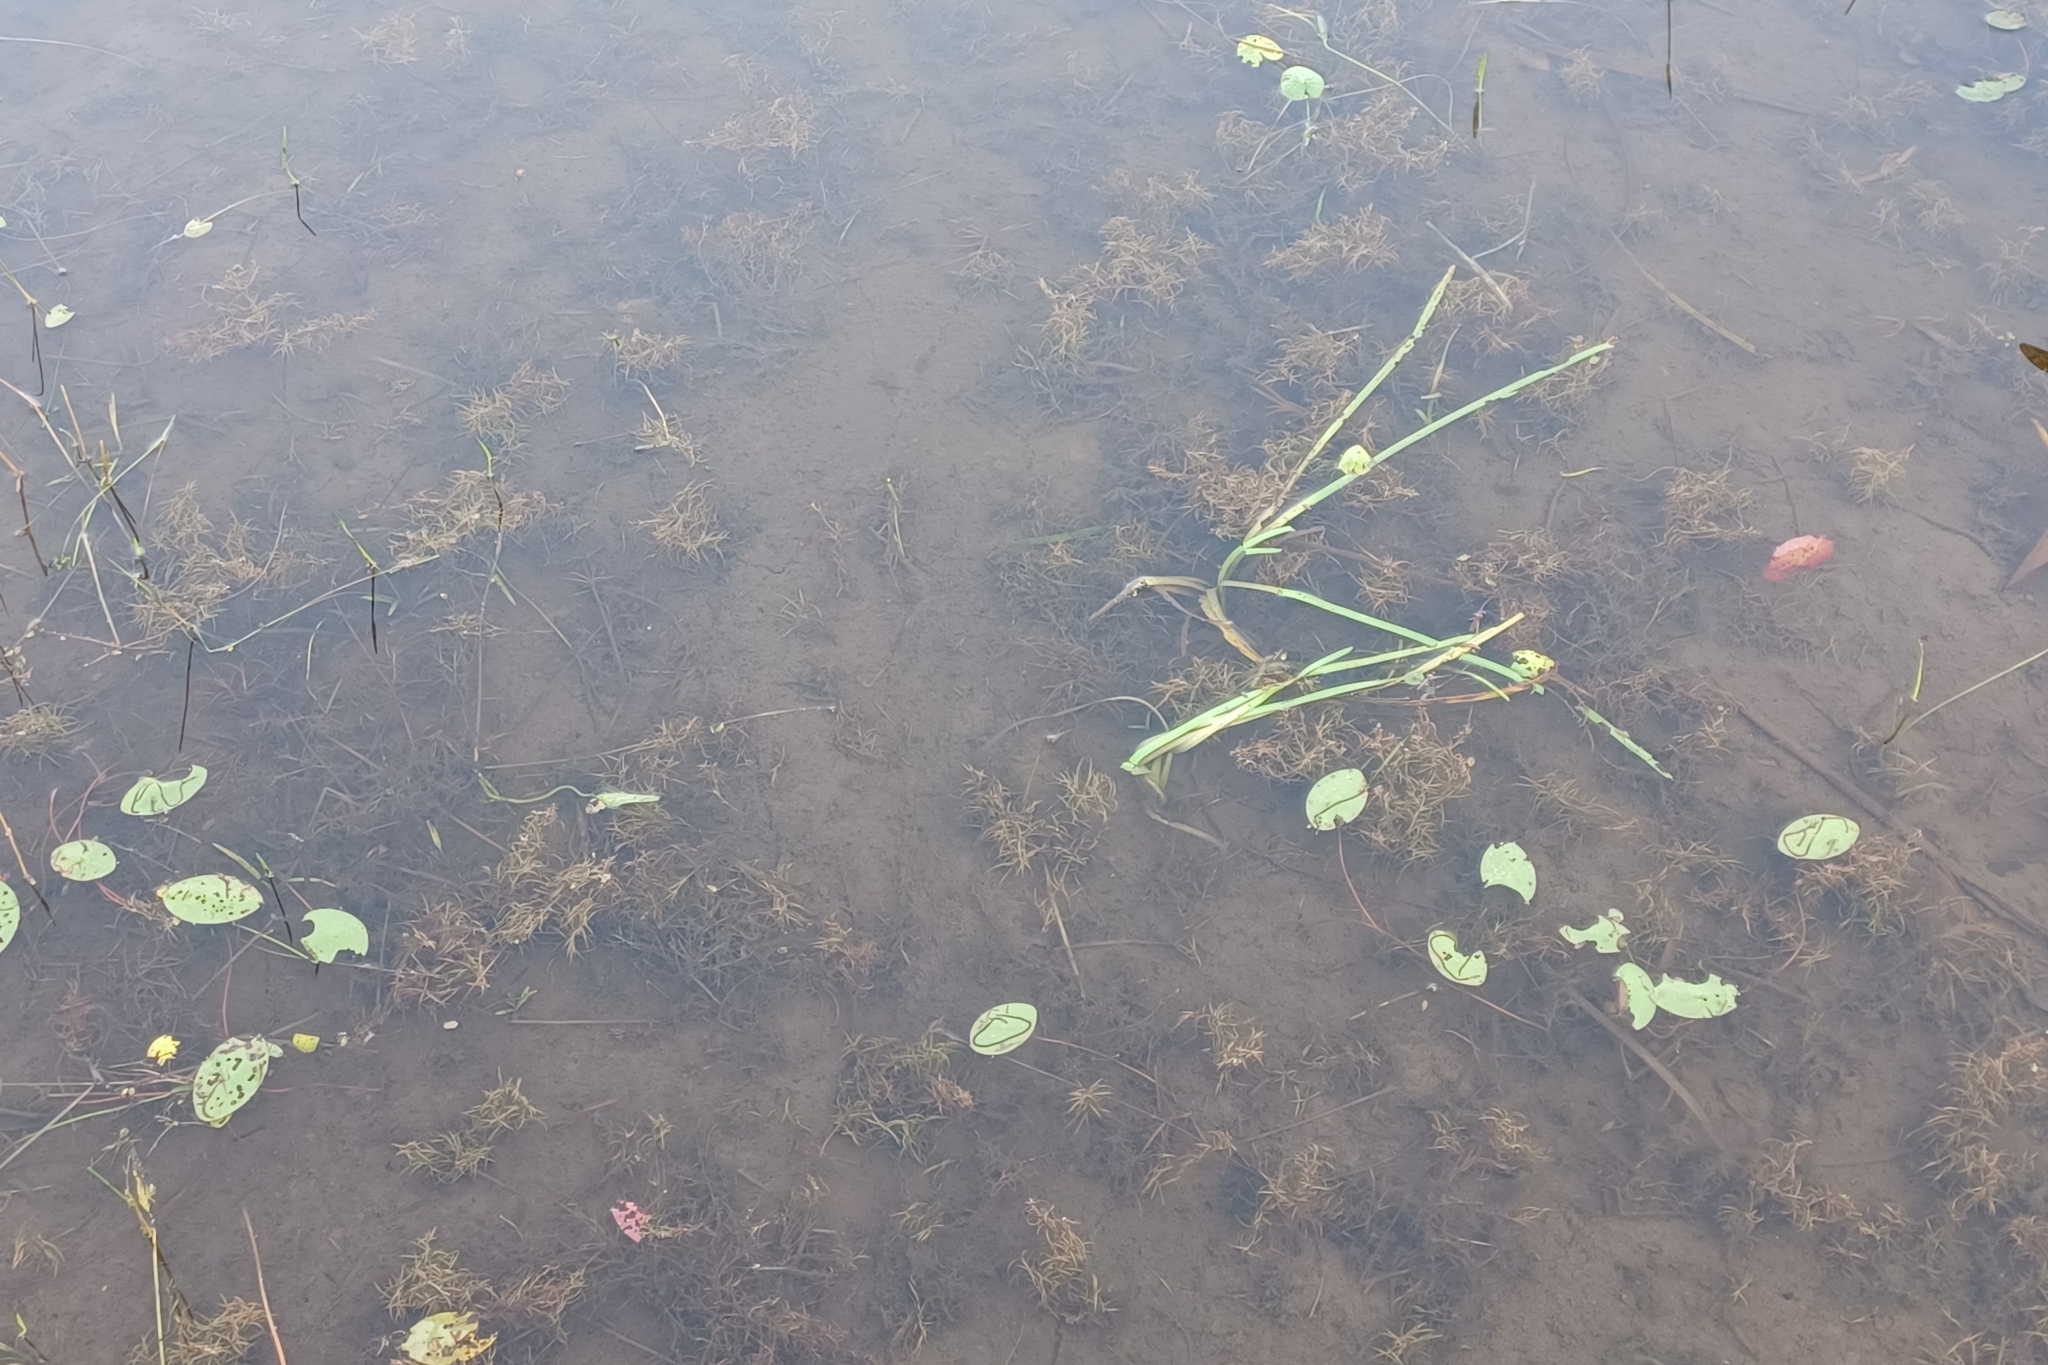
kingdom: Plantae
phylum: Tracheophyta
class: Liliopsida
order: Alismatales
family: Potamogetonaceae
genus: Potamogeton
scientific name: Potamogeton spirillus
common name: Northern snail-seed pondweed
